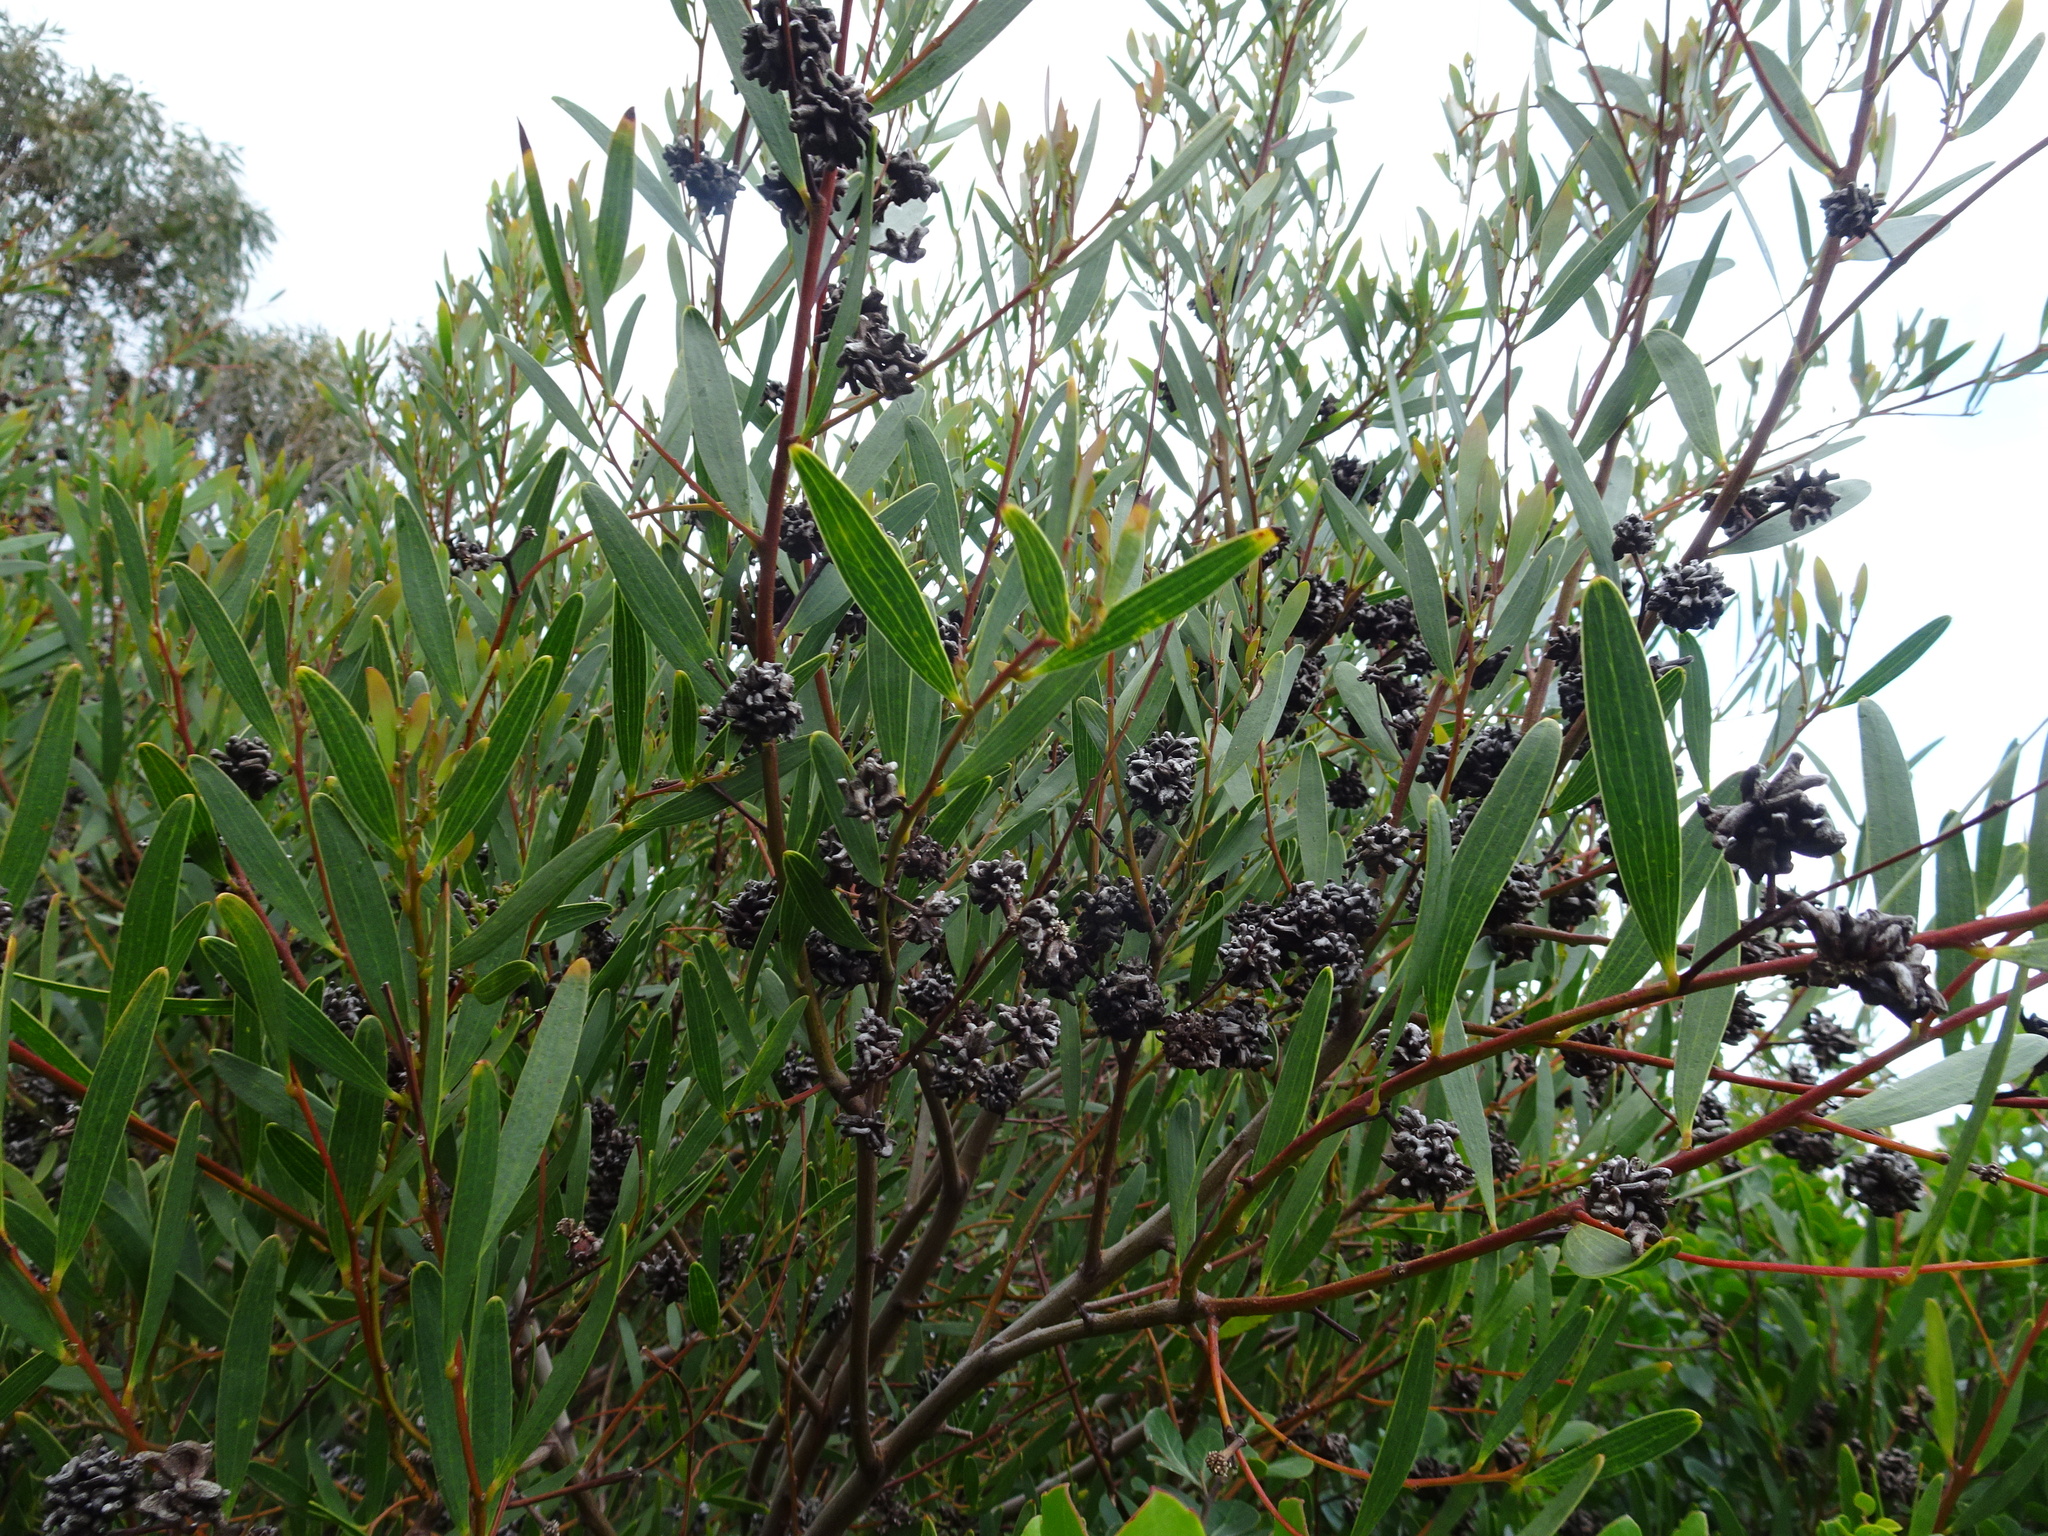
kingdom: Plantae
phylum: Tracheophyta
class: Magnoliopsida
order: Fabales
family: Fabaceae
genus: Acacia
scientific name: Acacia cyclops
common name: Coastal wattle
